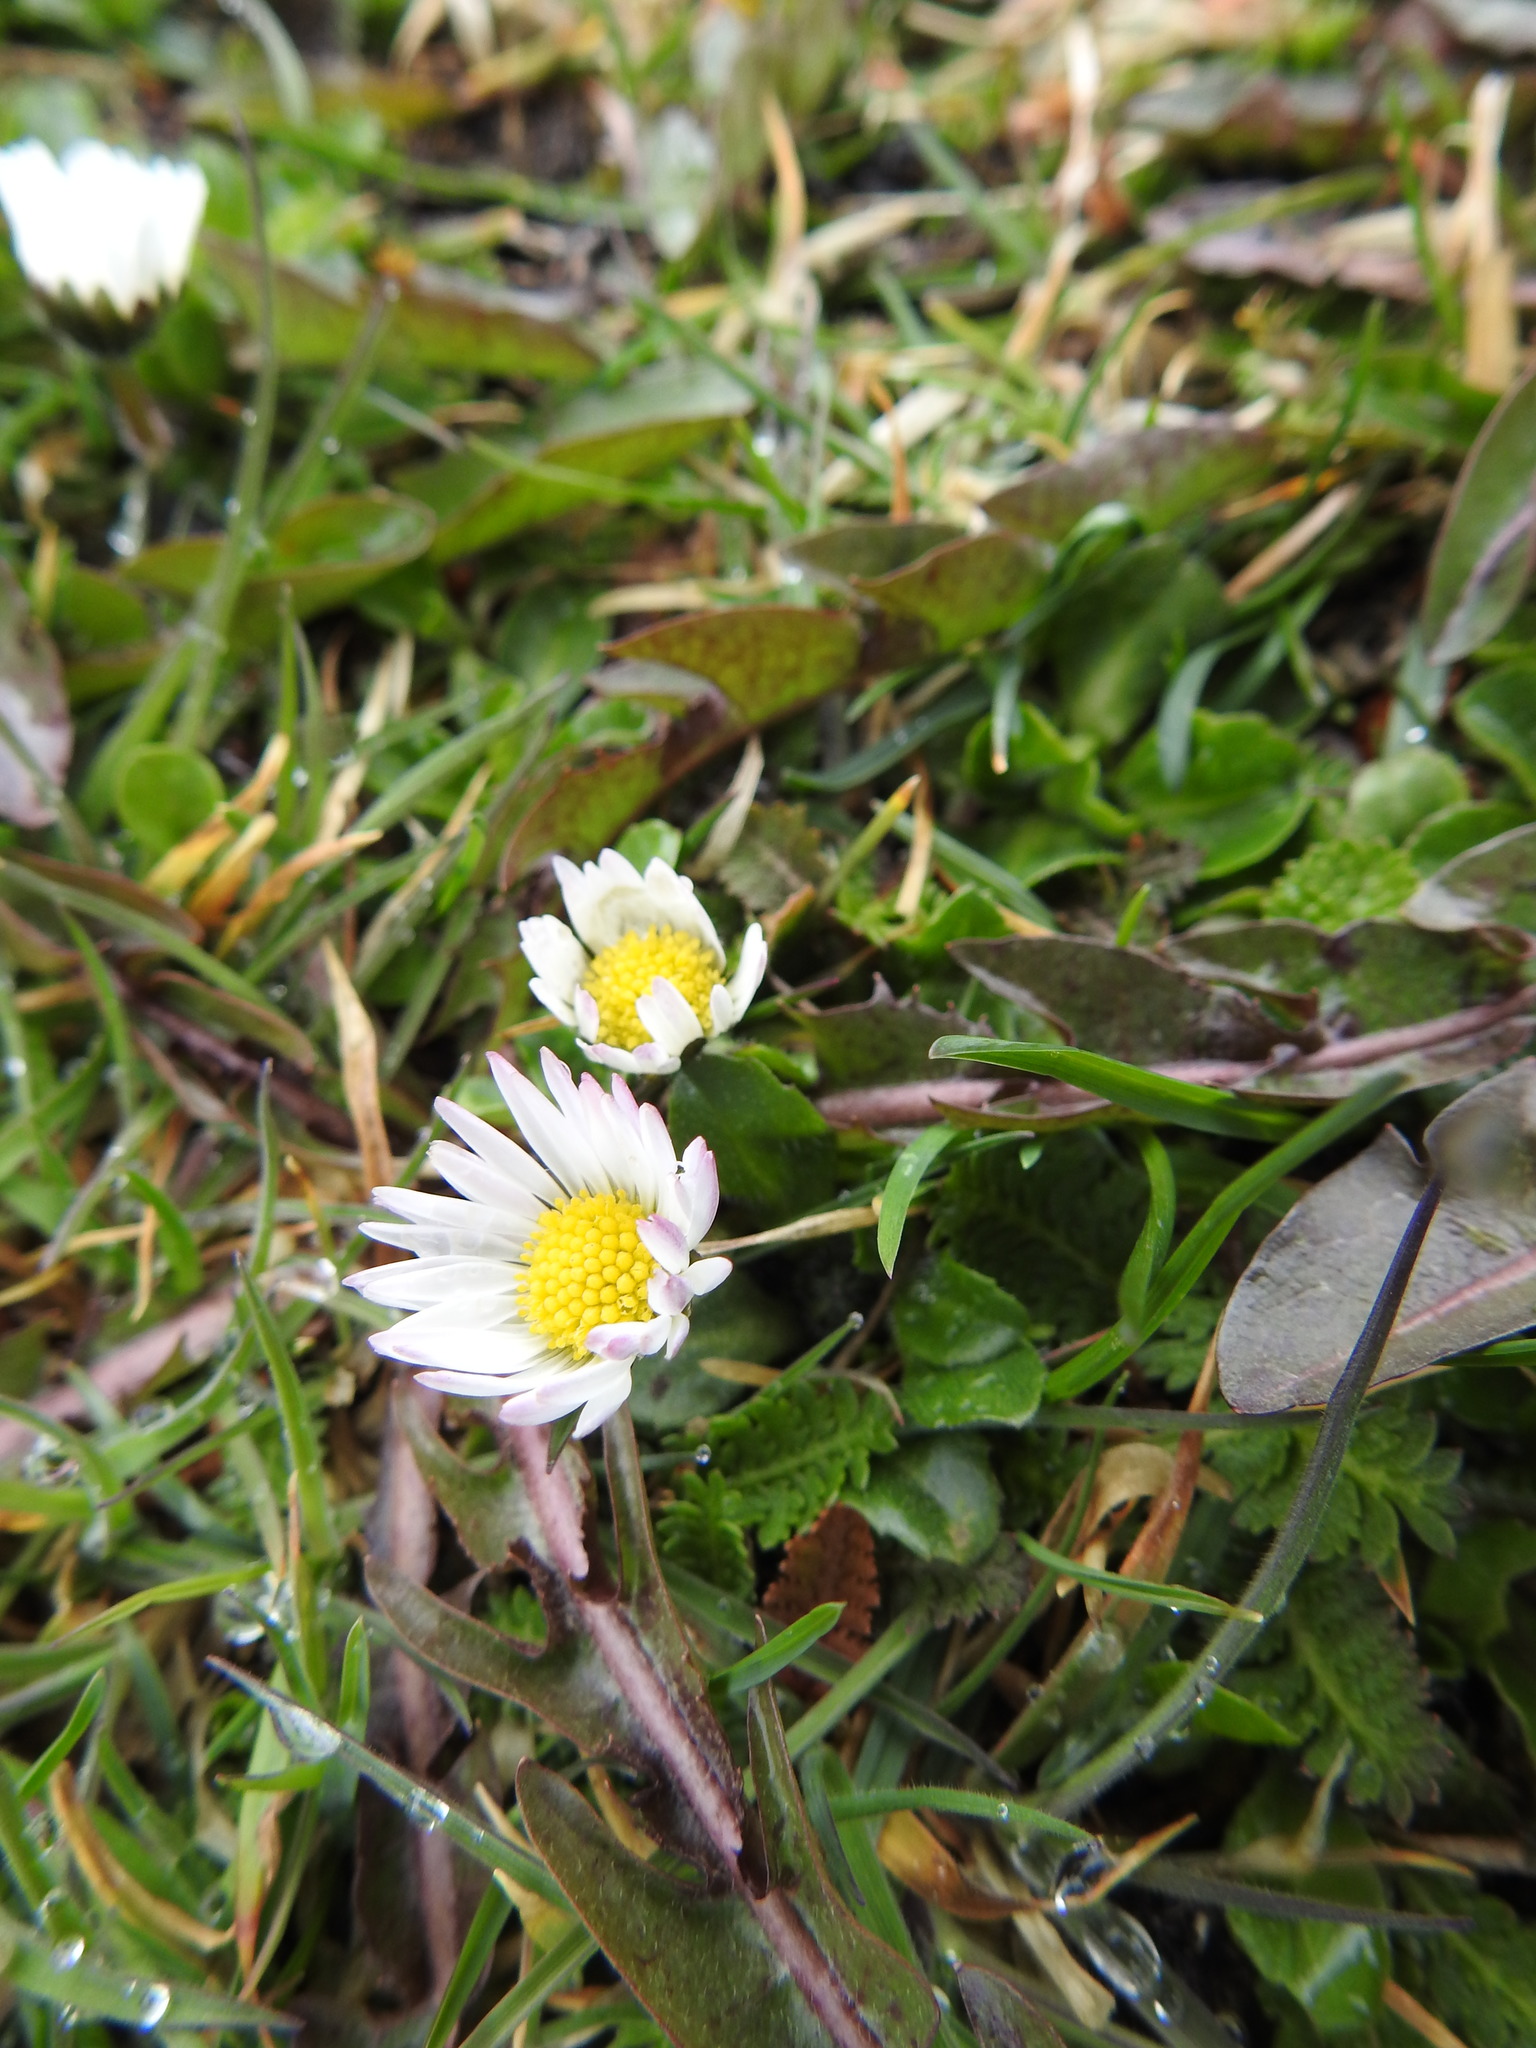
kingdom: Plantae
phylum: Tracheophyta
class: Magnoliopsida
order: Asterales
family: Asteraceae
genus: Bellis
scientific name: Bellis perennis
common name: Lawndaisy
